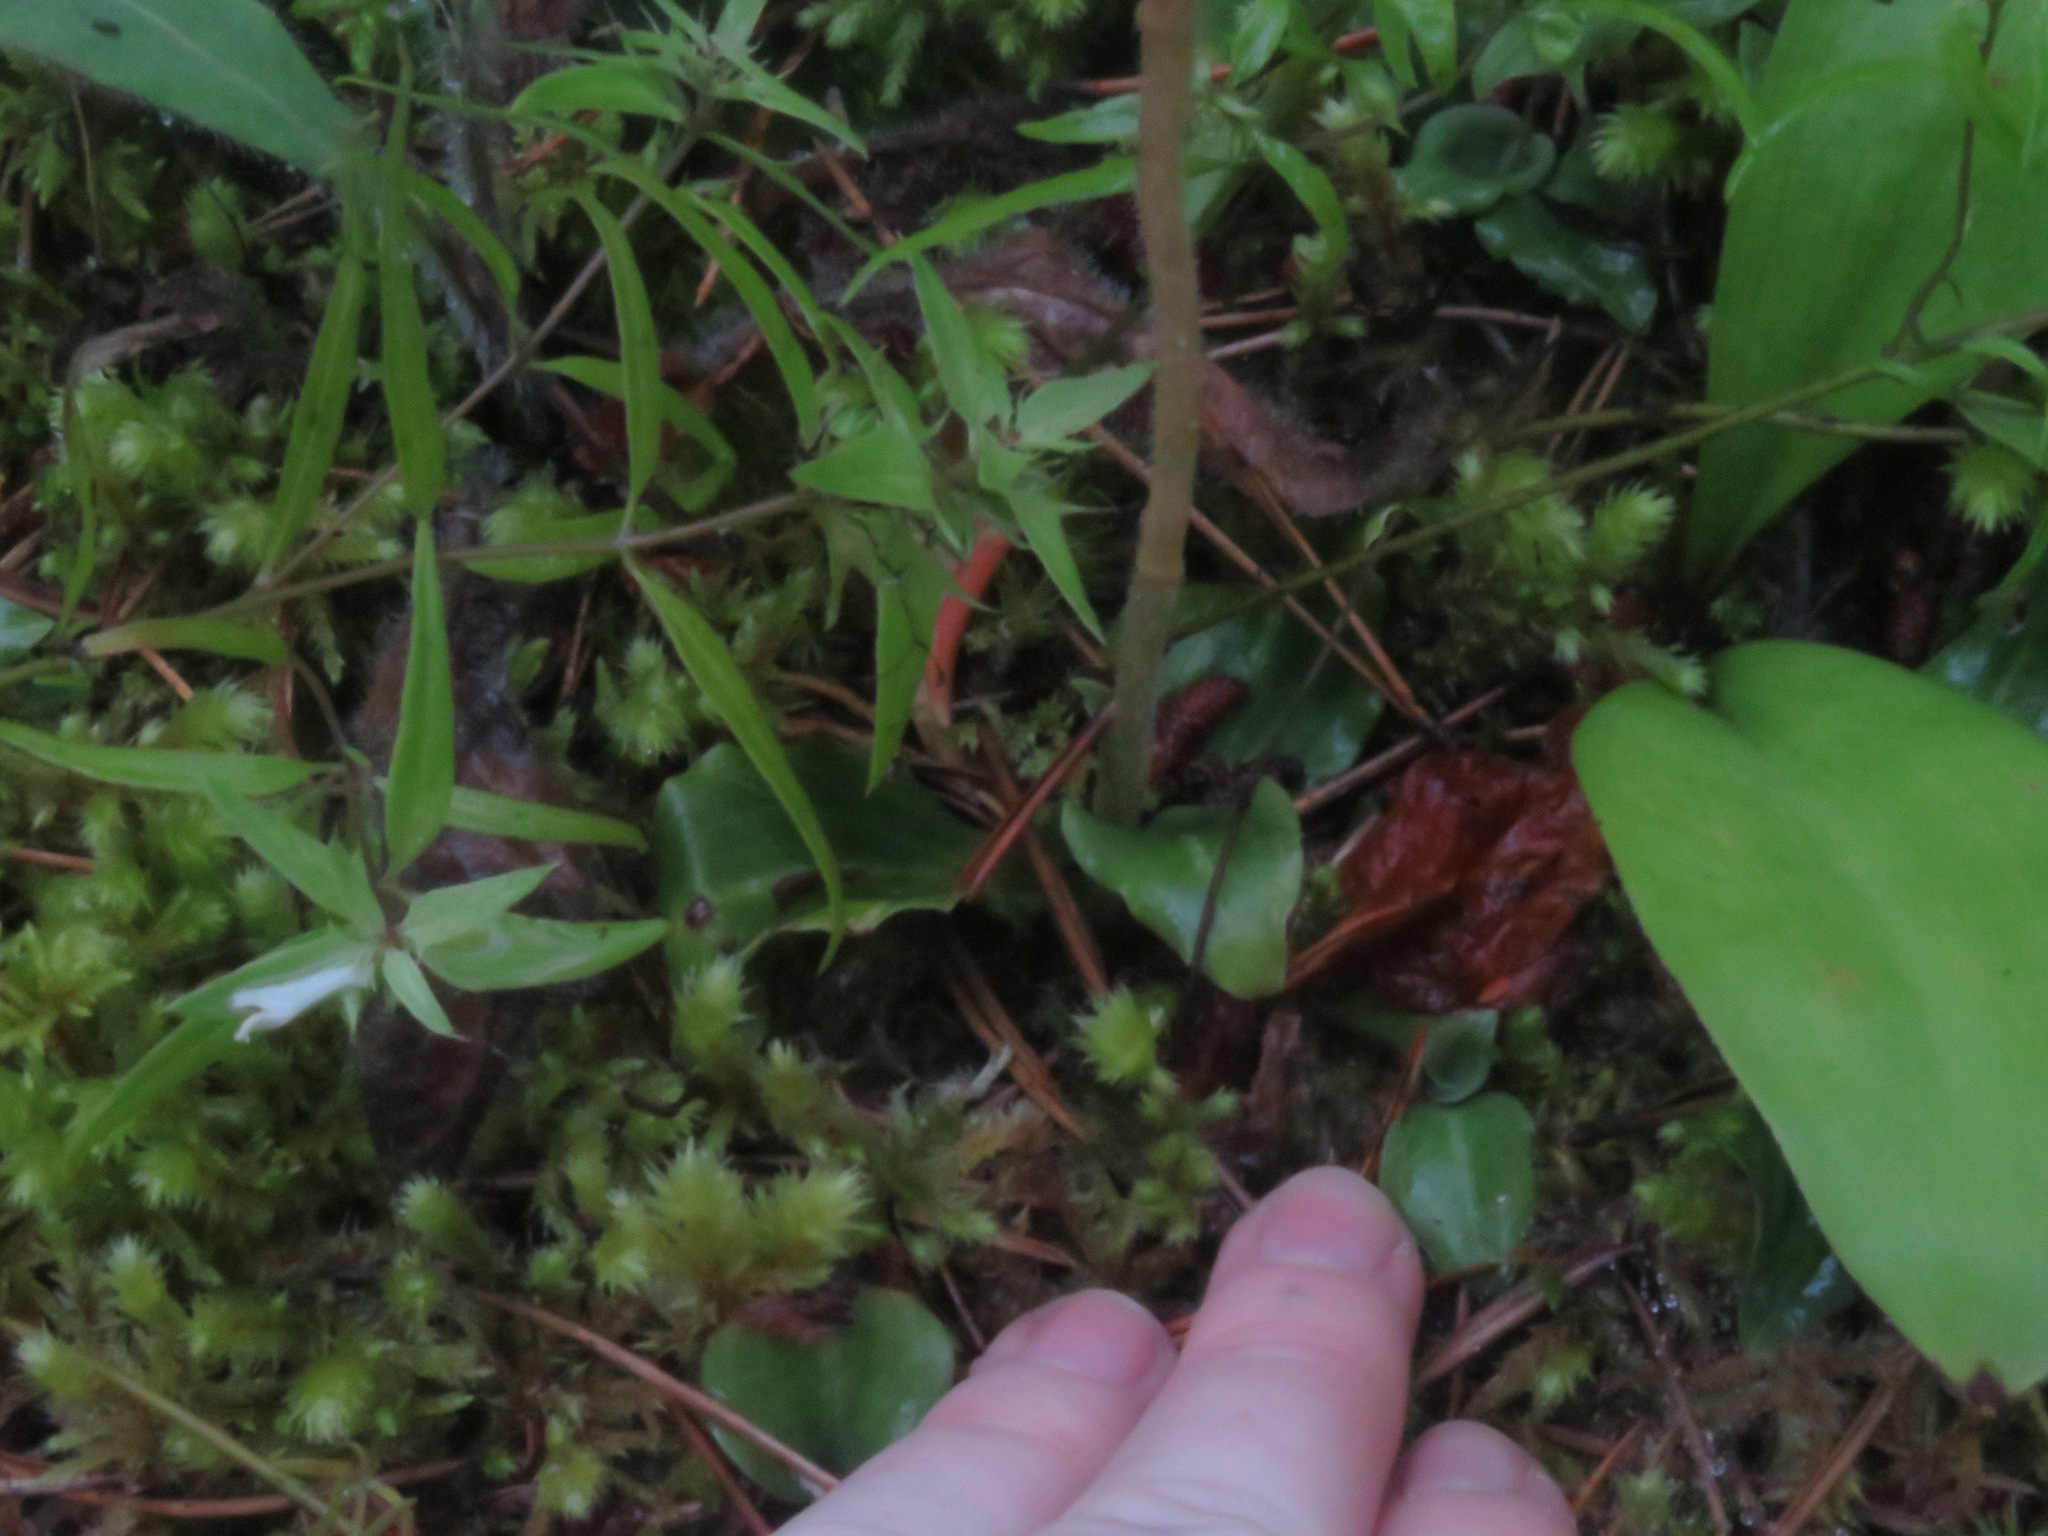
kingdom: Plantae
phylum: Tracheophyta
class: Liliopsida
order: Asparagales
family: Orchidaceae
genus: Goodyera
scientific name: Goodyera oblongifolia
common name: Giant rattlesnake-plantain
